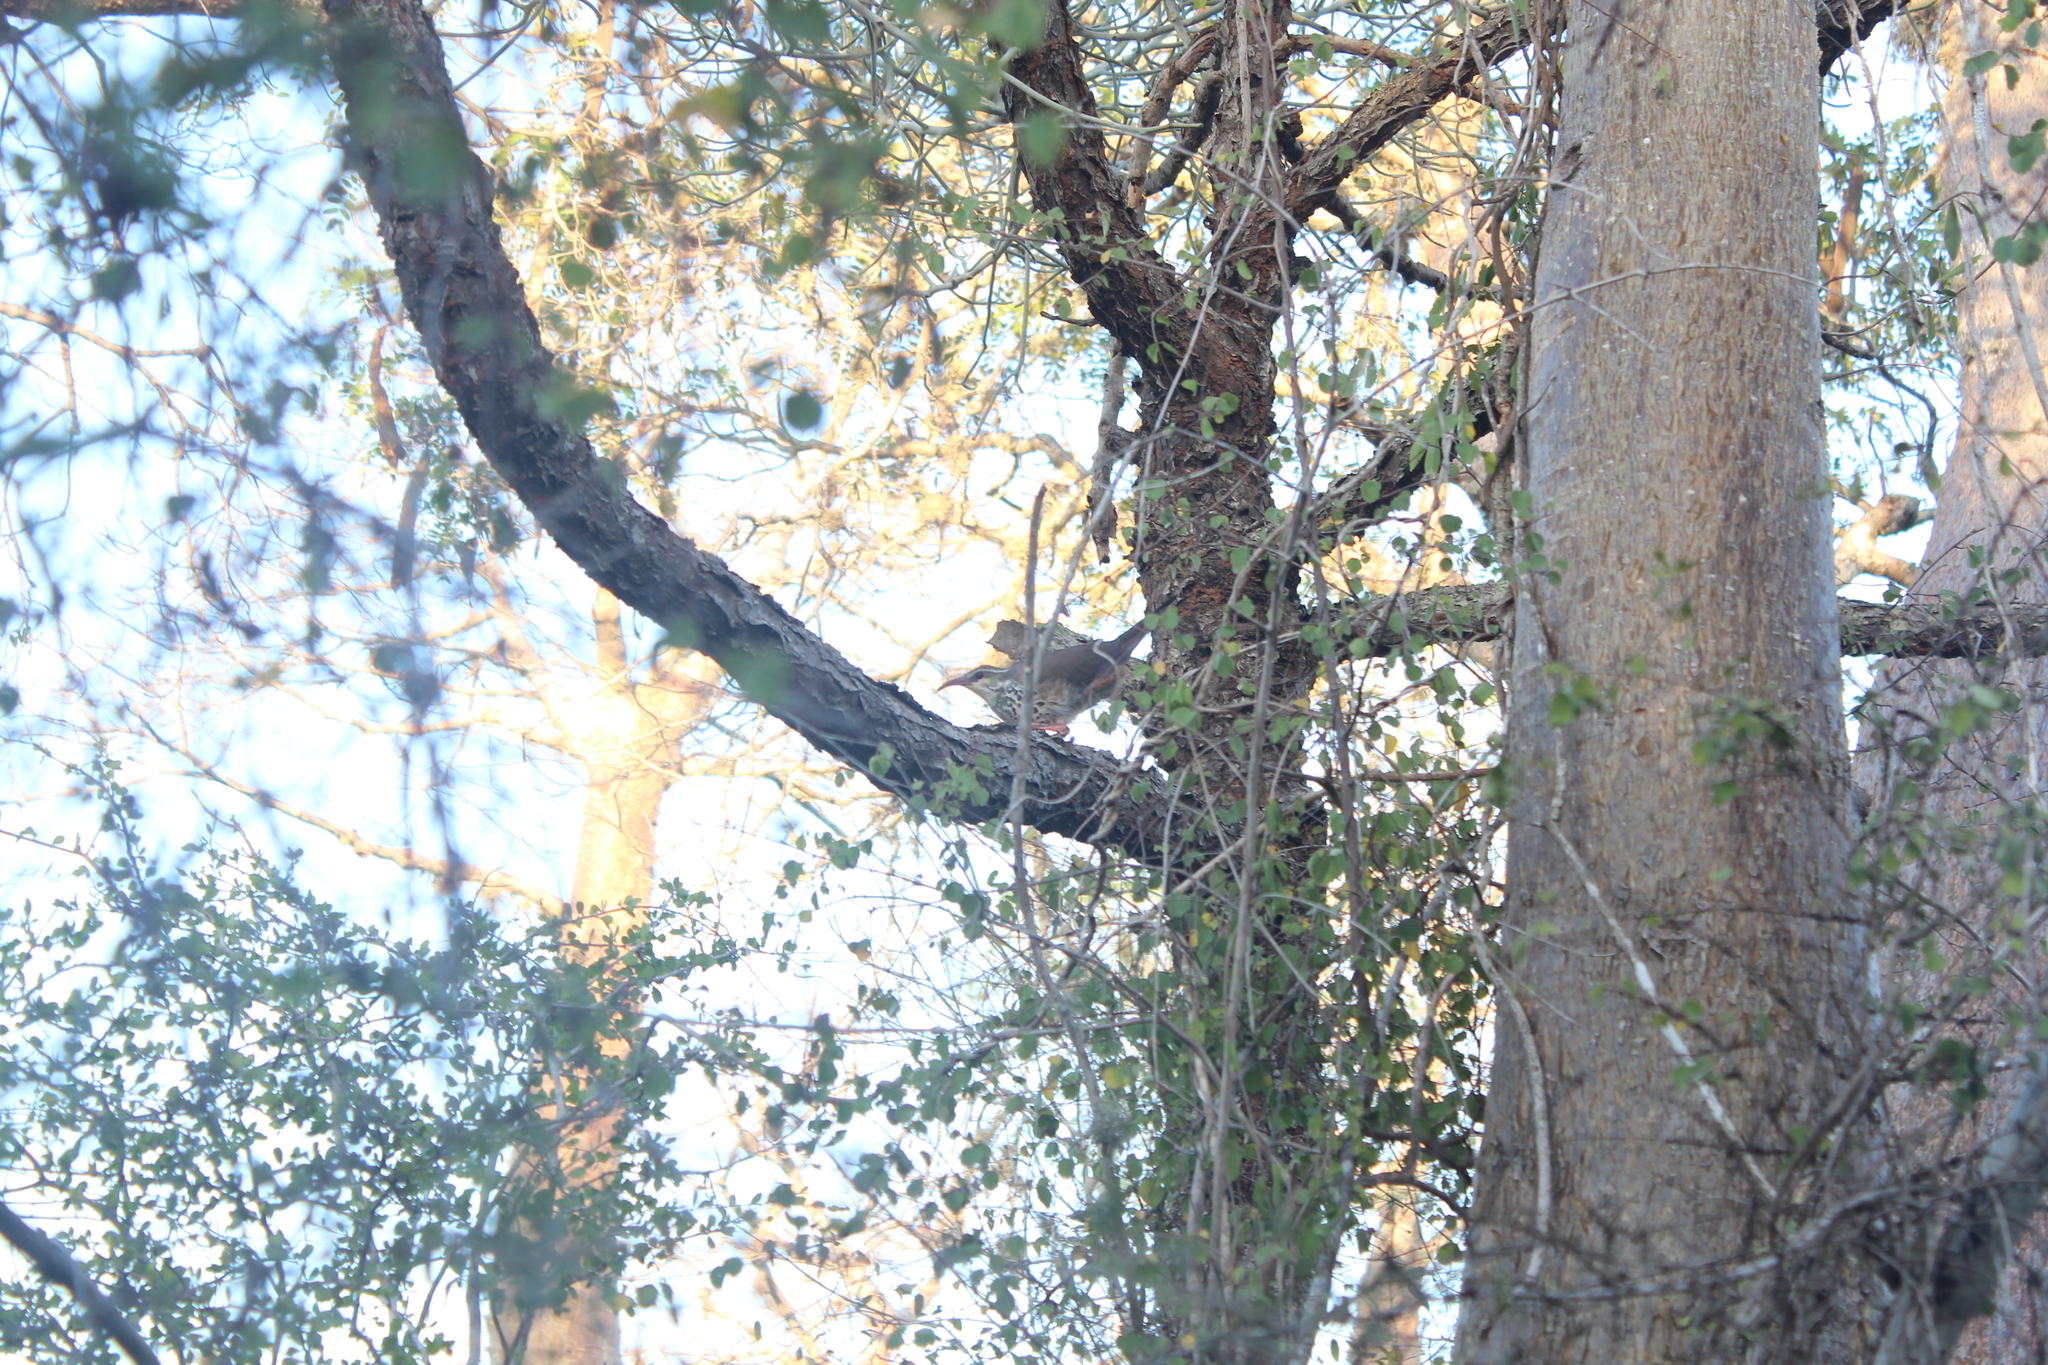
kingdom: Animalia
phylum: Chordata
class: Aves
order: Mesitornithiformes
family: Mesitornithidae
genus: Monias
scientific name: Monias benschi
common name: Subdesert mesite
